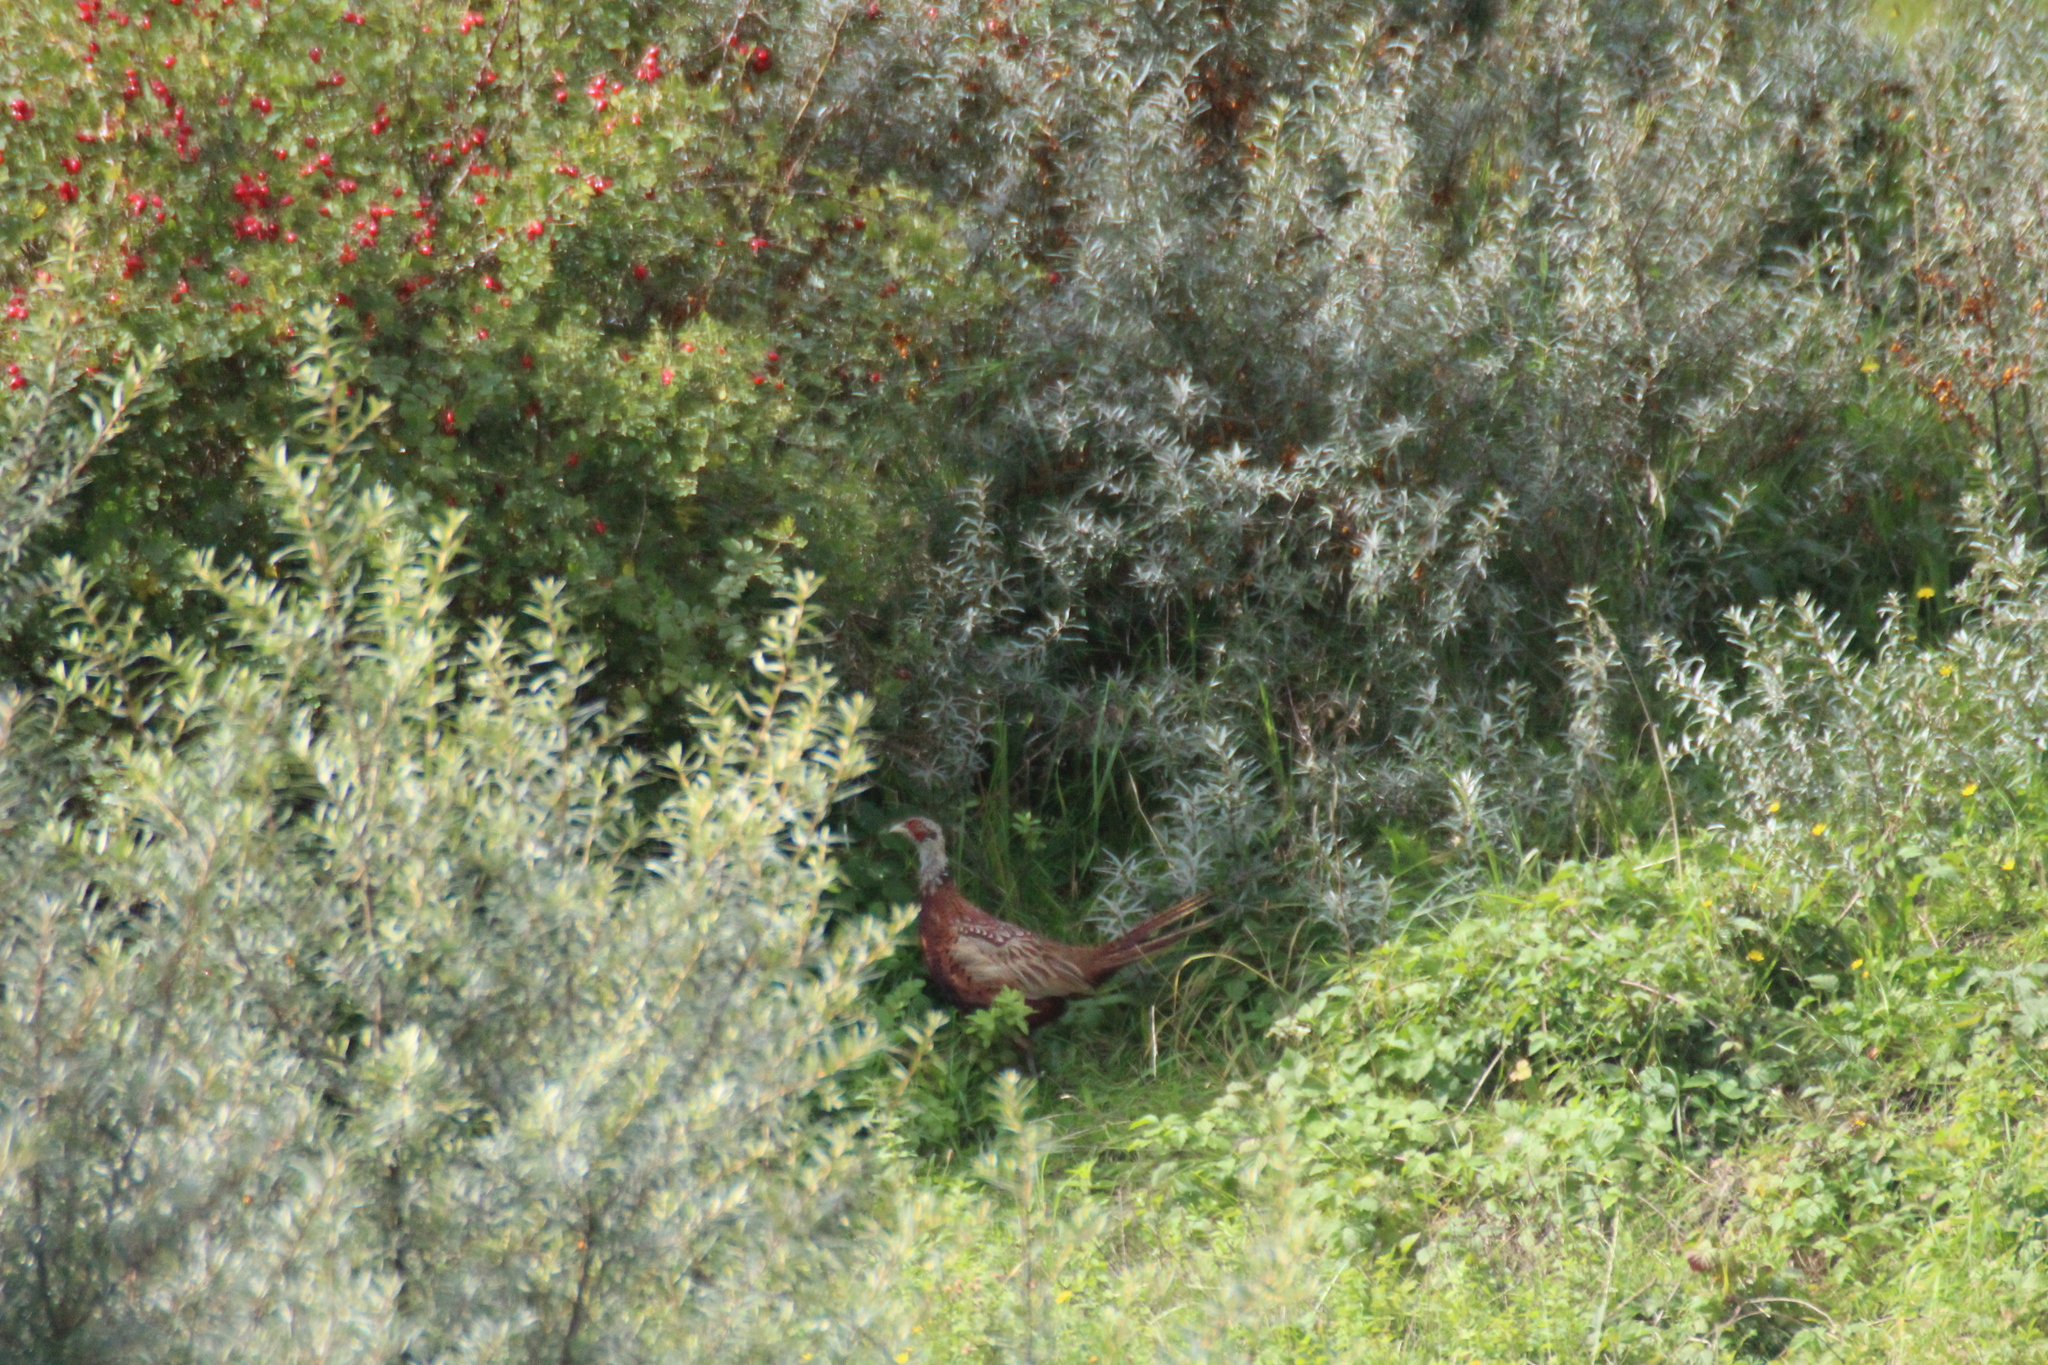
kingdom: Animalia
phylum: Chordata
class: Aves
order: Galliformes
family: Phasianidae
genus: Phasianus
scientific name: Phasianus colchicus
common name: Common pheasant
